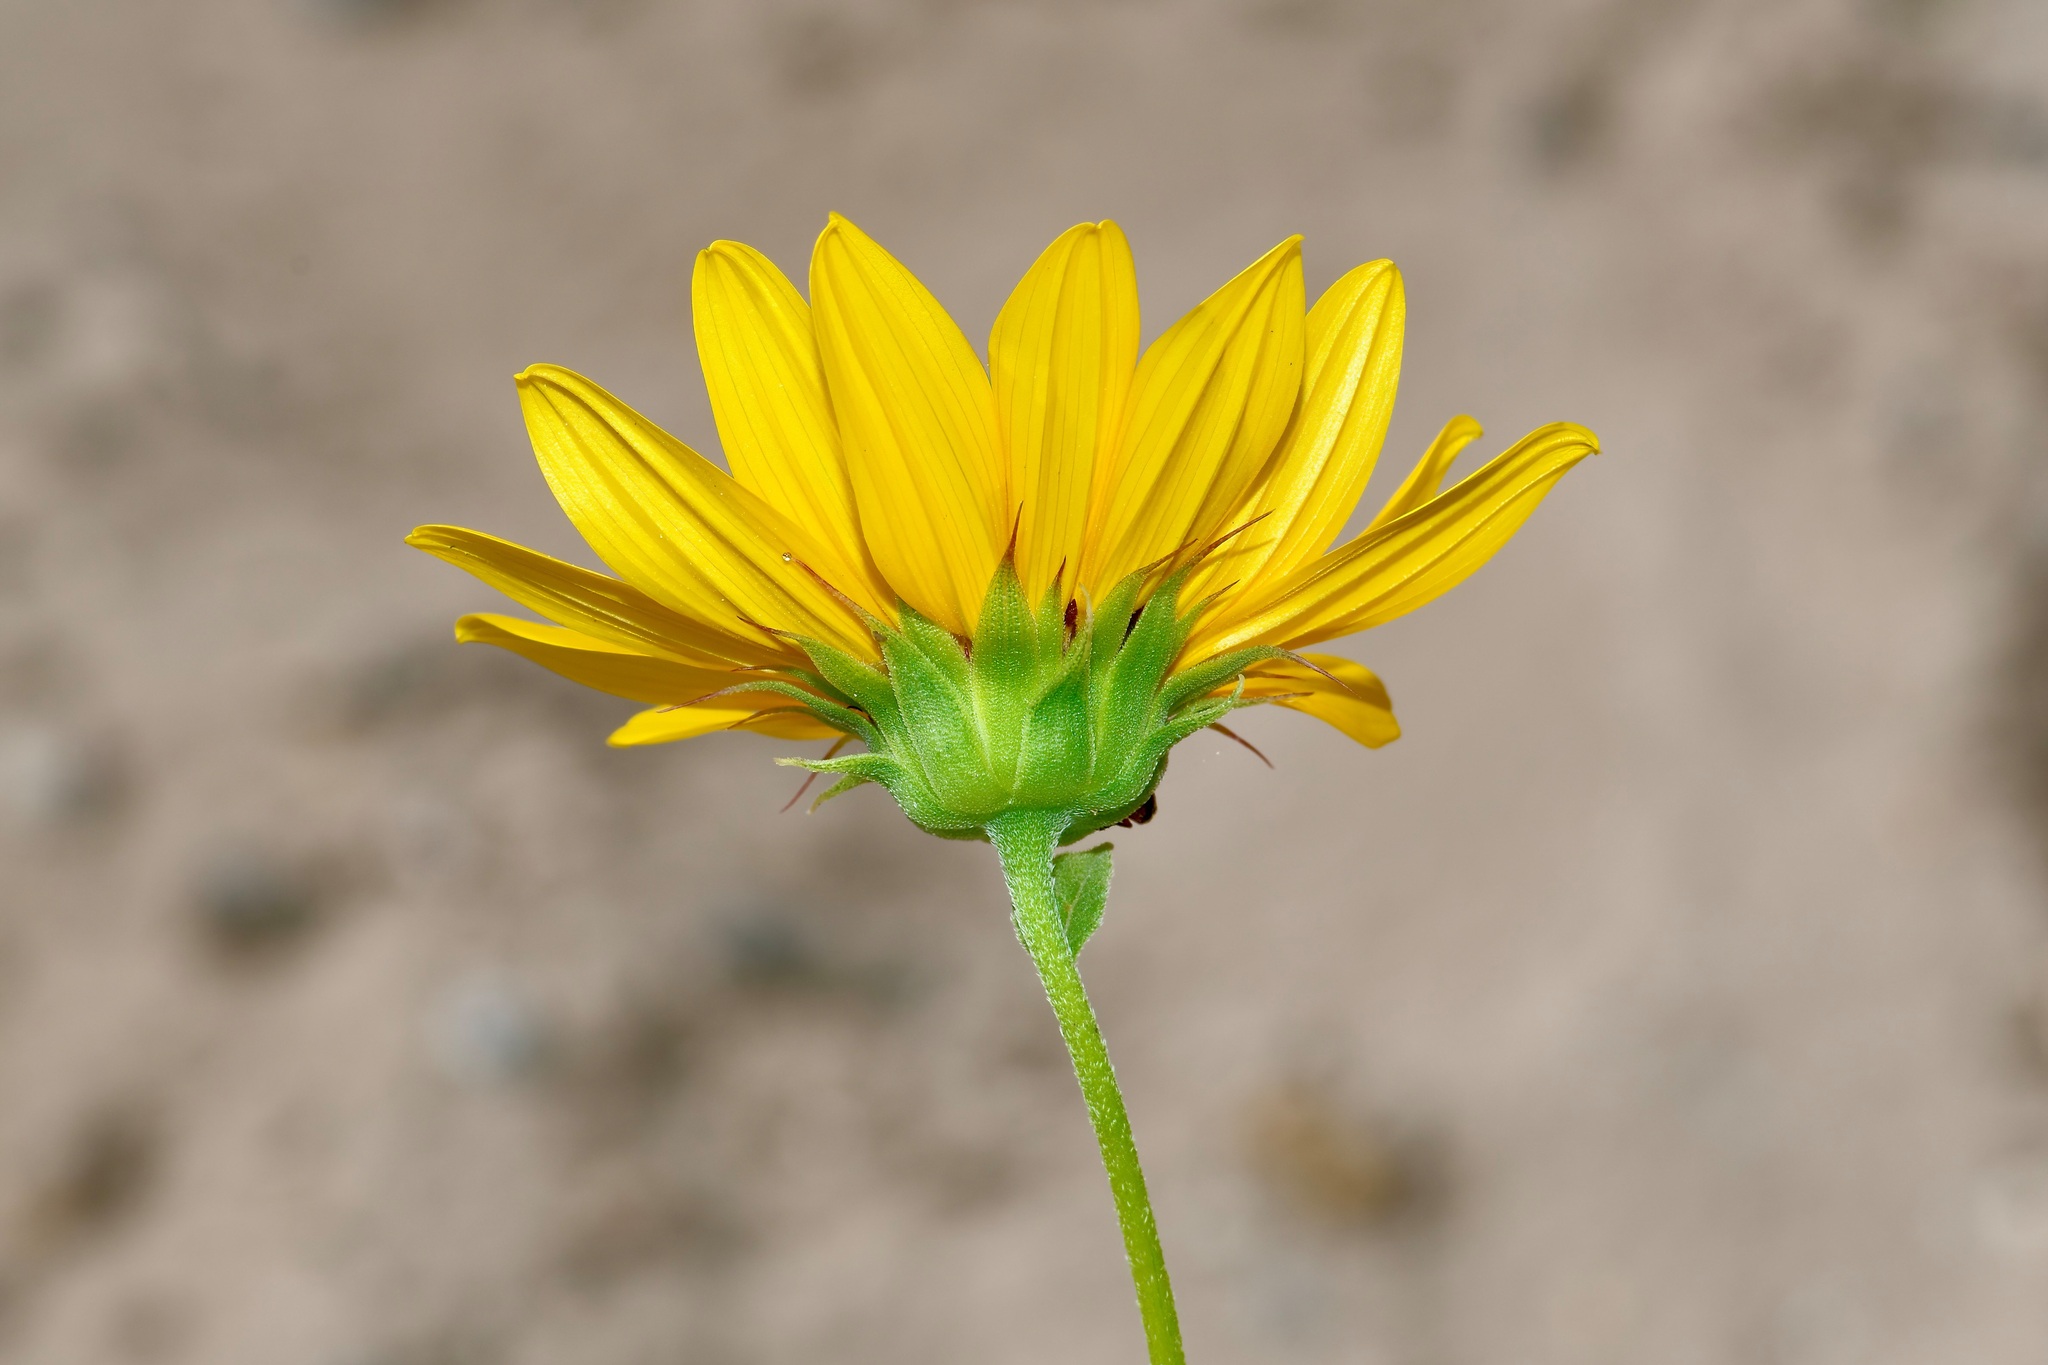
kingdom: Plantae
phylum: Tracheophyta
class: Magnoliopsida
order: Asterales
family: Asteraceae
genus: Helianthus
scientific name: Helianthus praecox
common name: Texas sunflower
